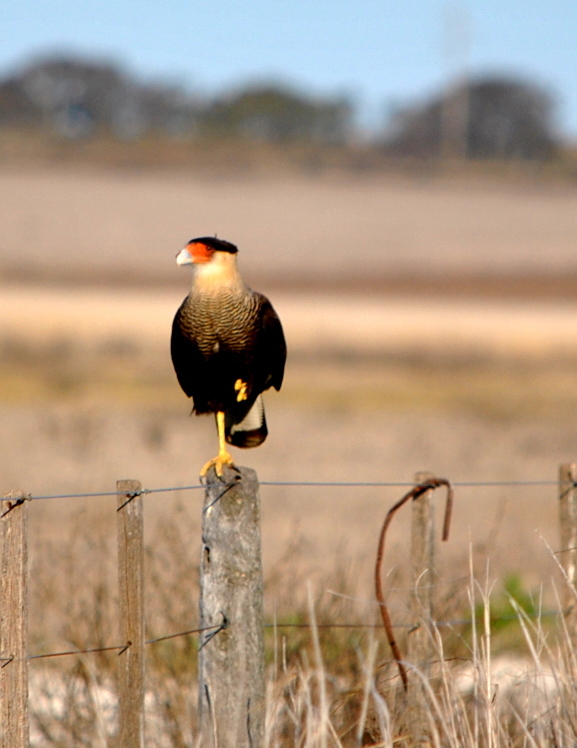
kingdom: Animalia
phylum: Chordata
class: Aves
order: Falconiformes
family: Falconidae
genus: Caracara
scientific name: Caracara plancus
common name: Southern caracara
